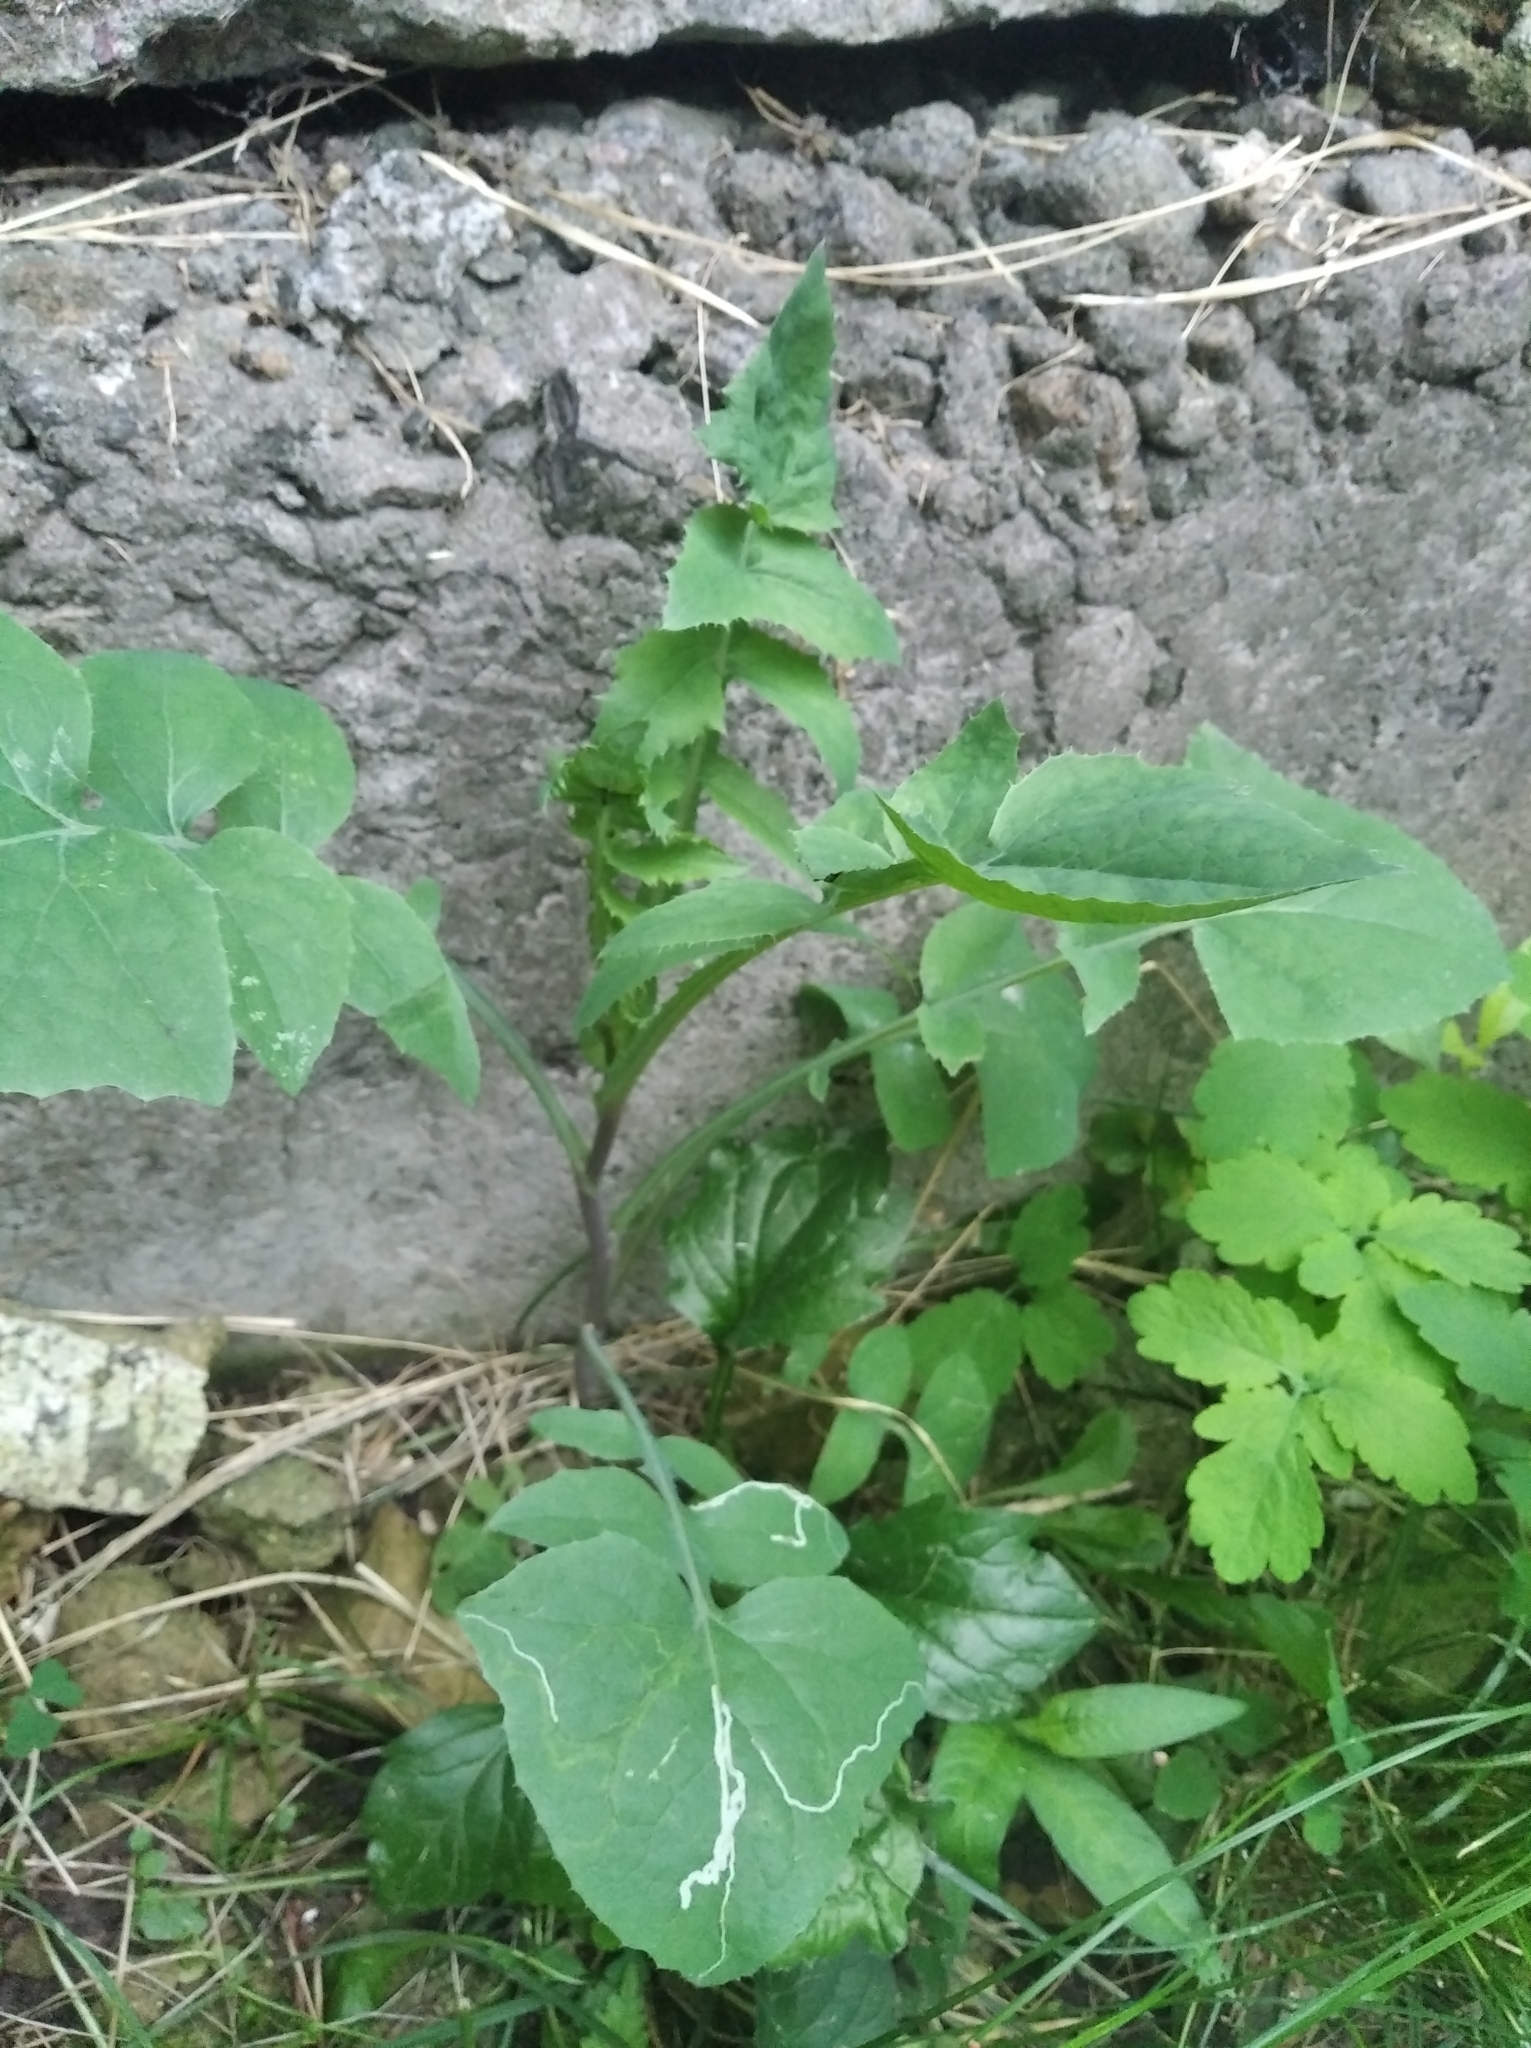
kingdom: Plantae
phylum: Tracheophyta
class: Magnoliopsida
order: Asterales
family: Asteraceae
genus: Sonchus
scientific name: Sonchus oleraceus
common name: Common sowthistle
